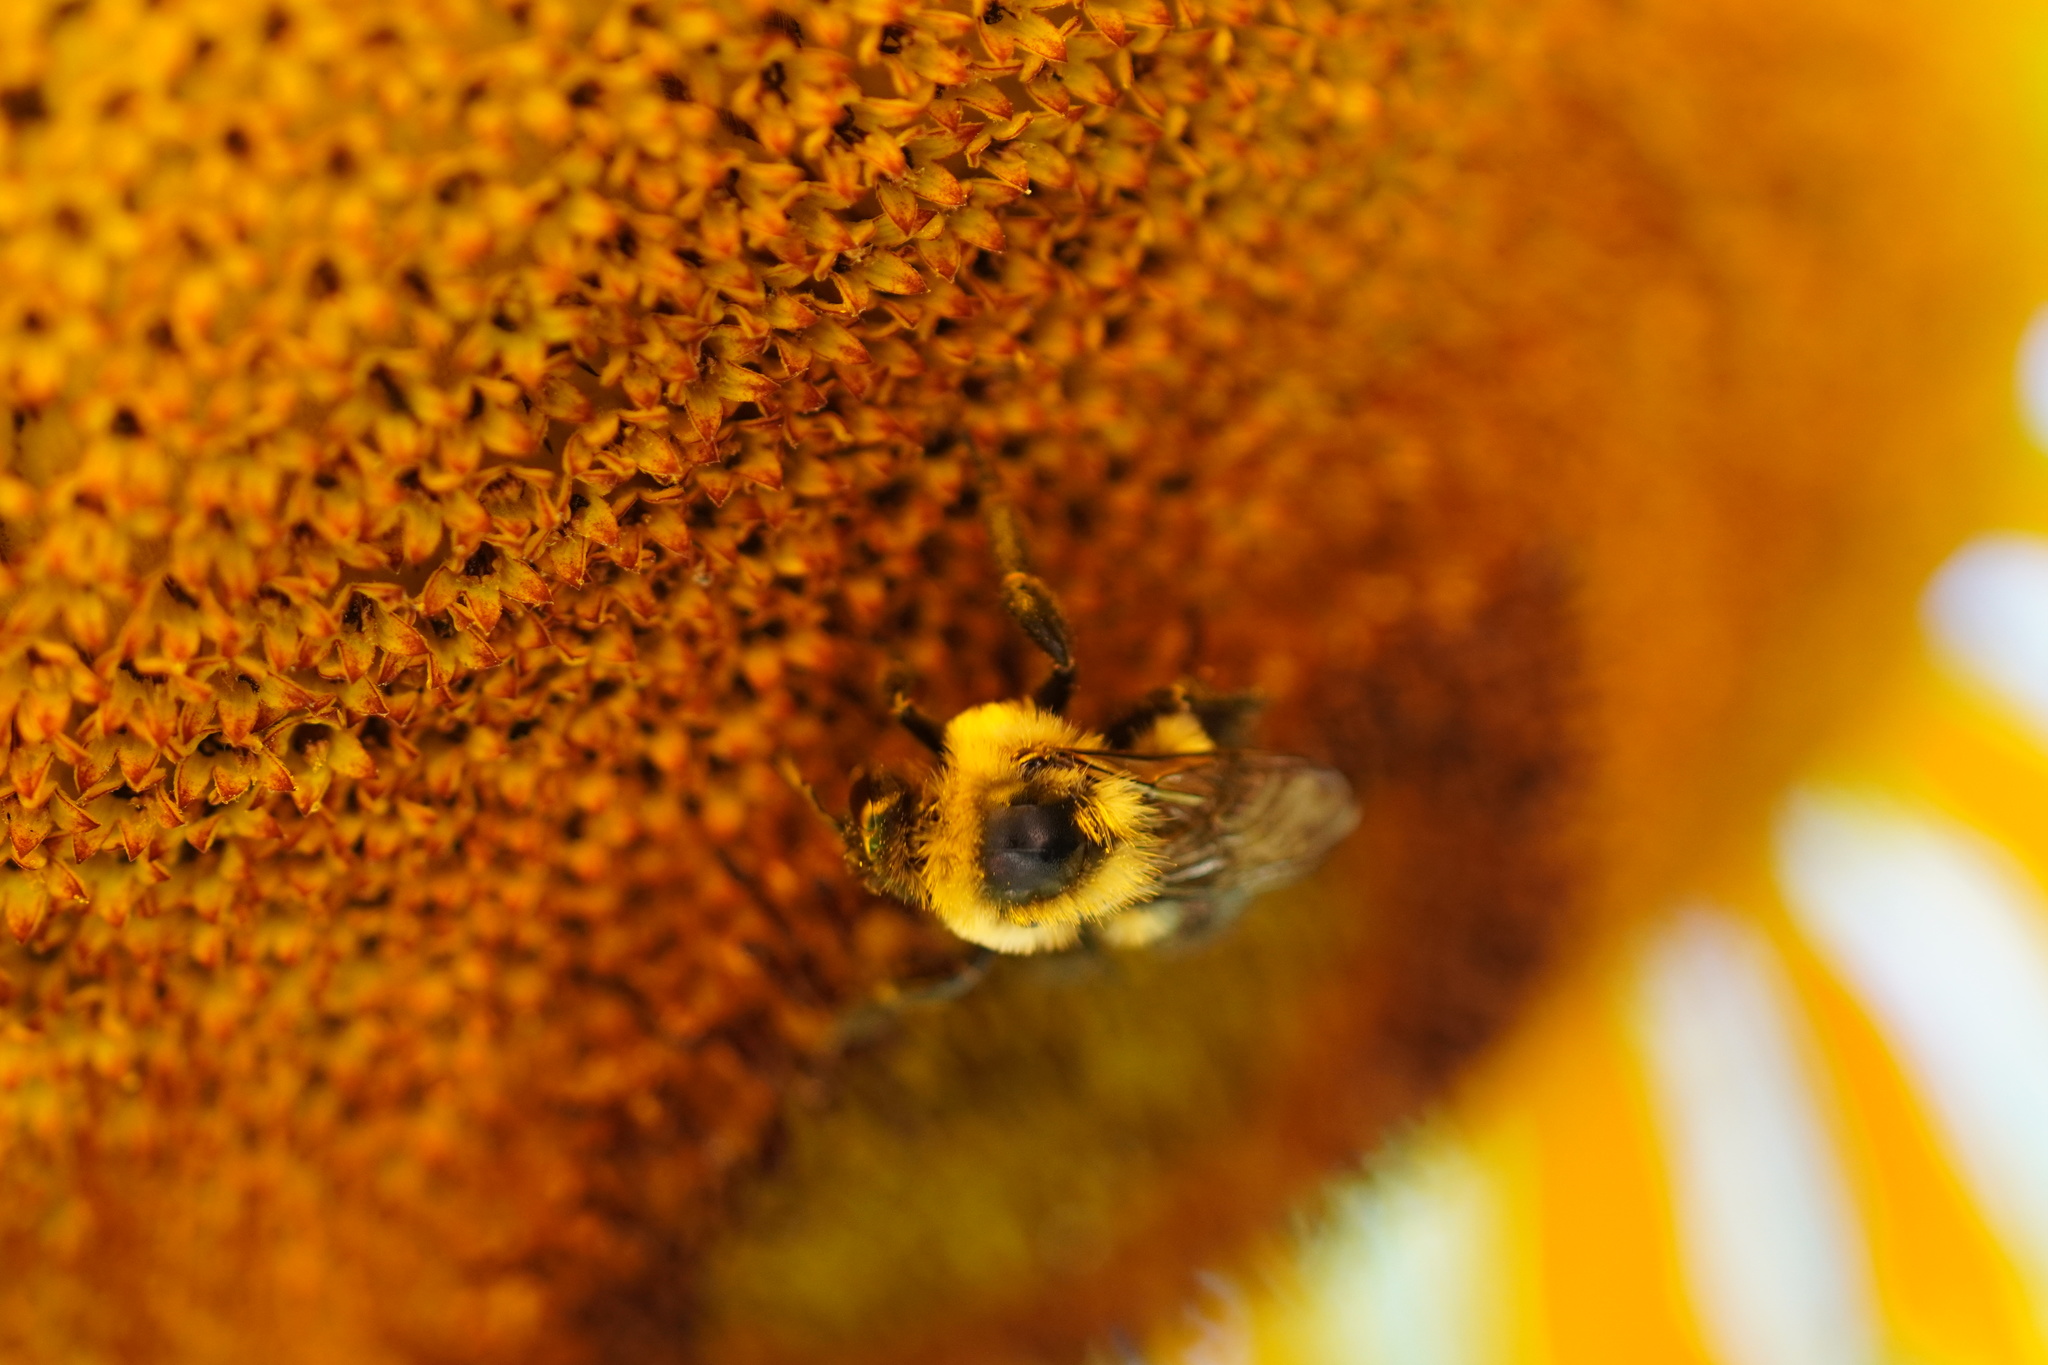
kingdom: Animalia
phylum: Arthropoda
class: Insecta
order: Hymenoptera
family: Apidae
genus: Bombus
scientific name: Bombus impatiens
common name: Common eastern bumble bee
